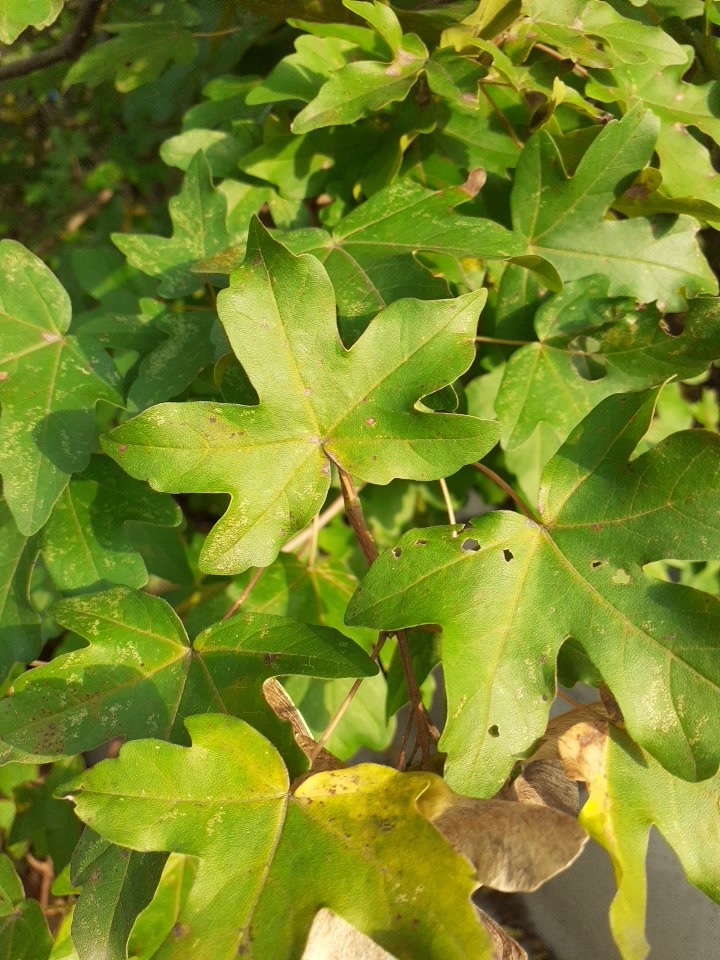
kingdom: Plantae
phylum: Tracheophyta
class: Magnoliopsida
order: Sapindales
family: Sapindaceae
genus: Acer
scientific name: Acer campestre
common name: Field maple
